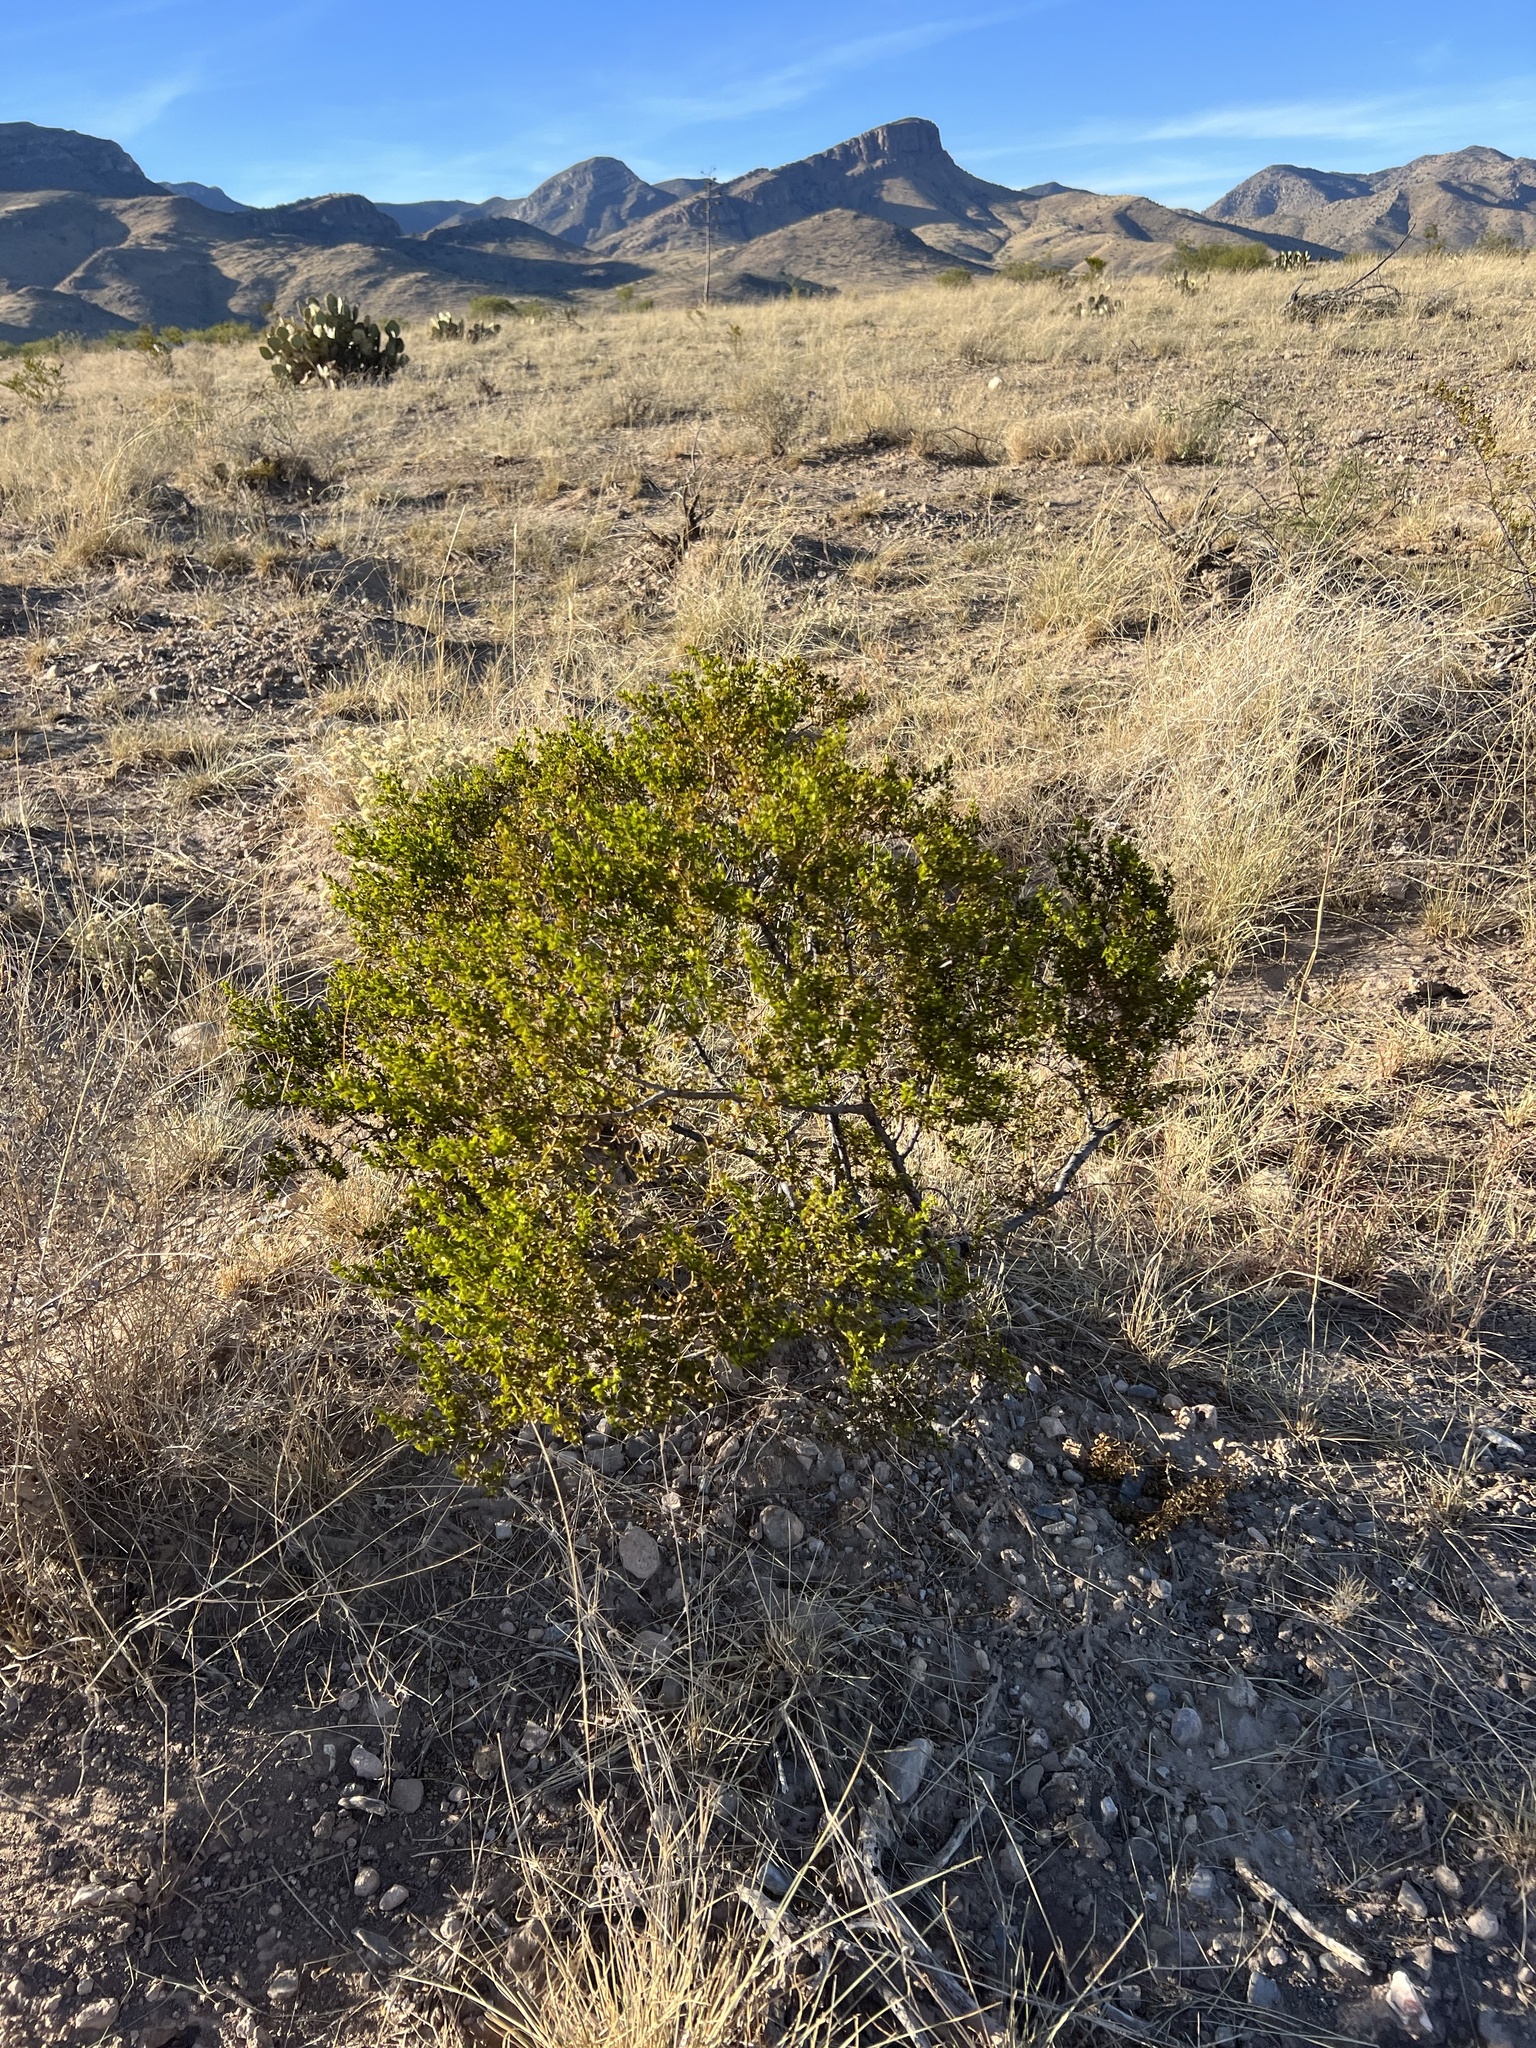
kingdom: Plantae
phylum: Tracheophyta
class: Magnoliopsida
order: Zygophyllales
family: Zygophyllaceae
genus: Larrea
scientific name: Larrea tridentata
